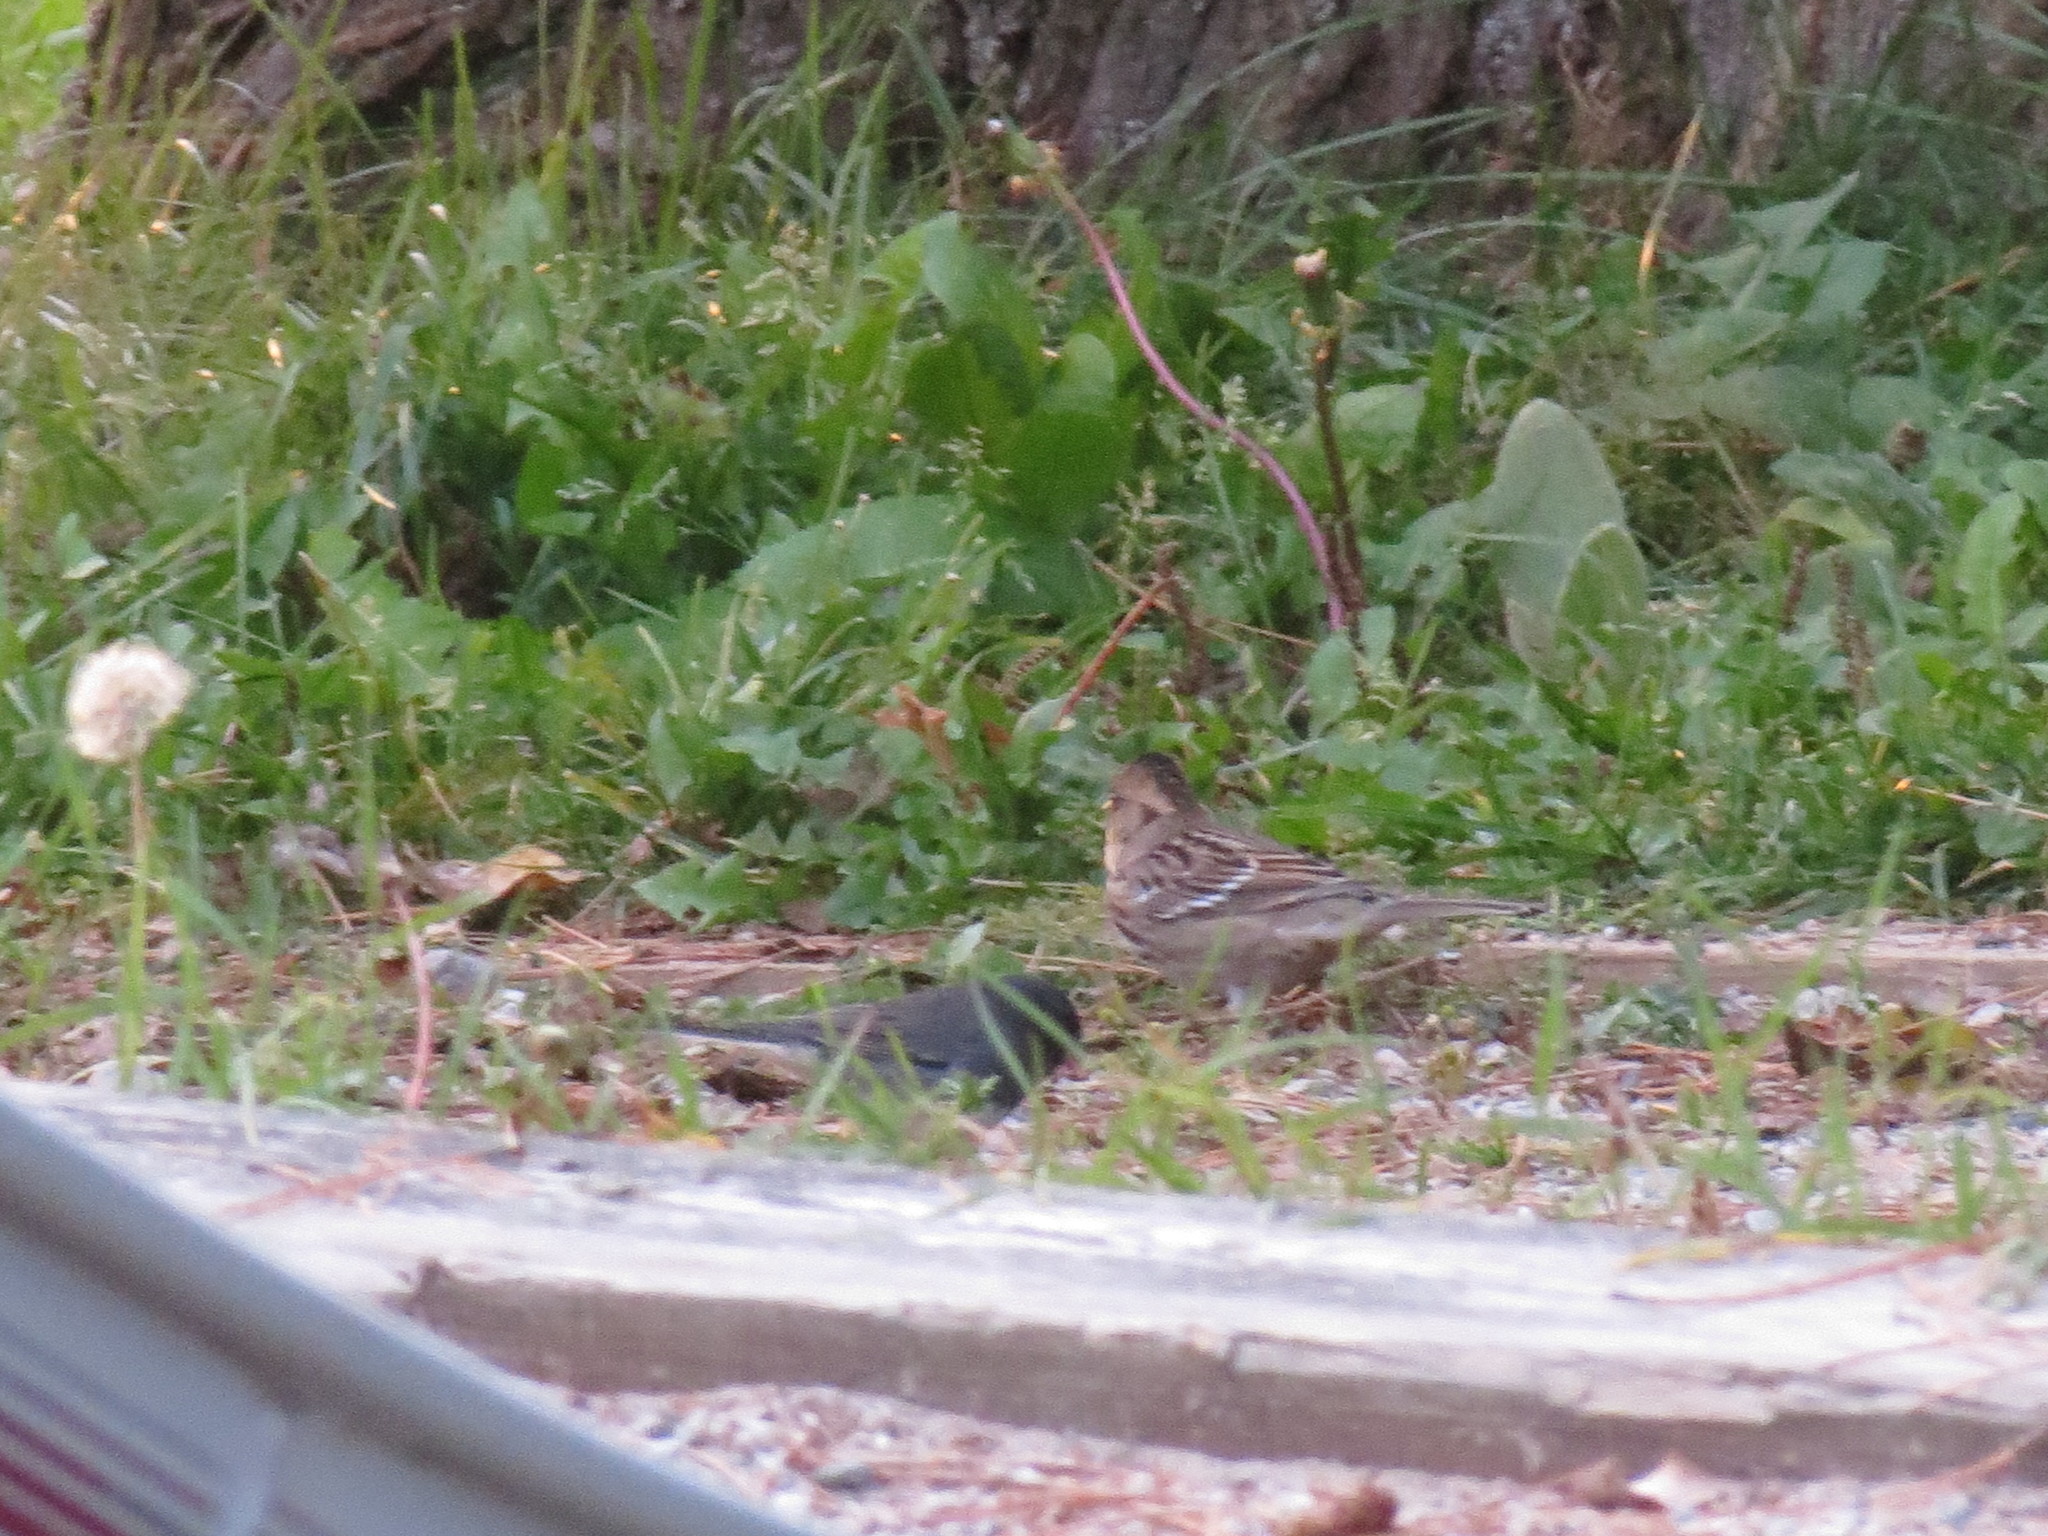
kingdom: Animalia
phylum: Chordata
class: Aves
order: Passeriformes
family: Passerellidae
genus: Junco
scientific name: Junco hyemalis
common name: Dark-eyed junco
